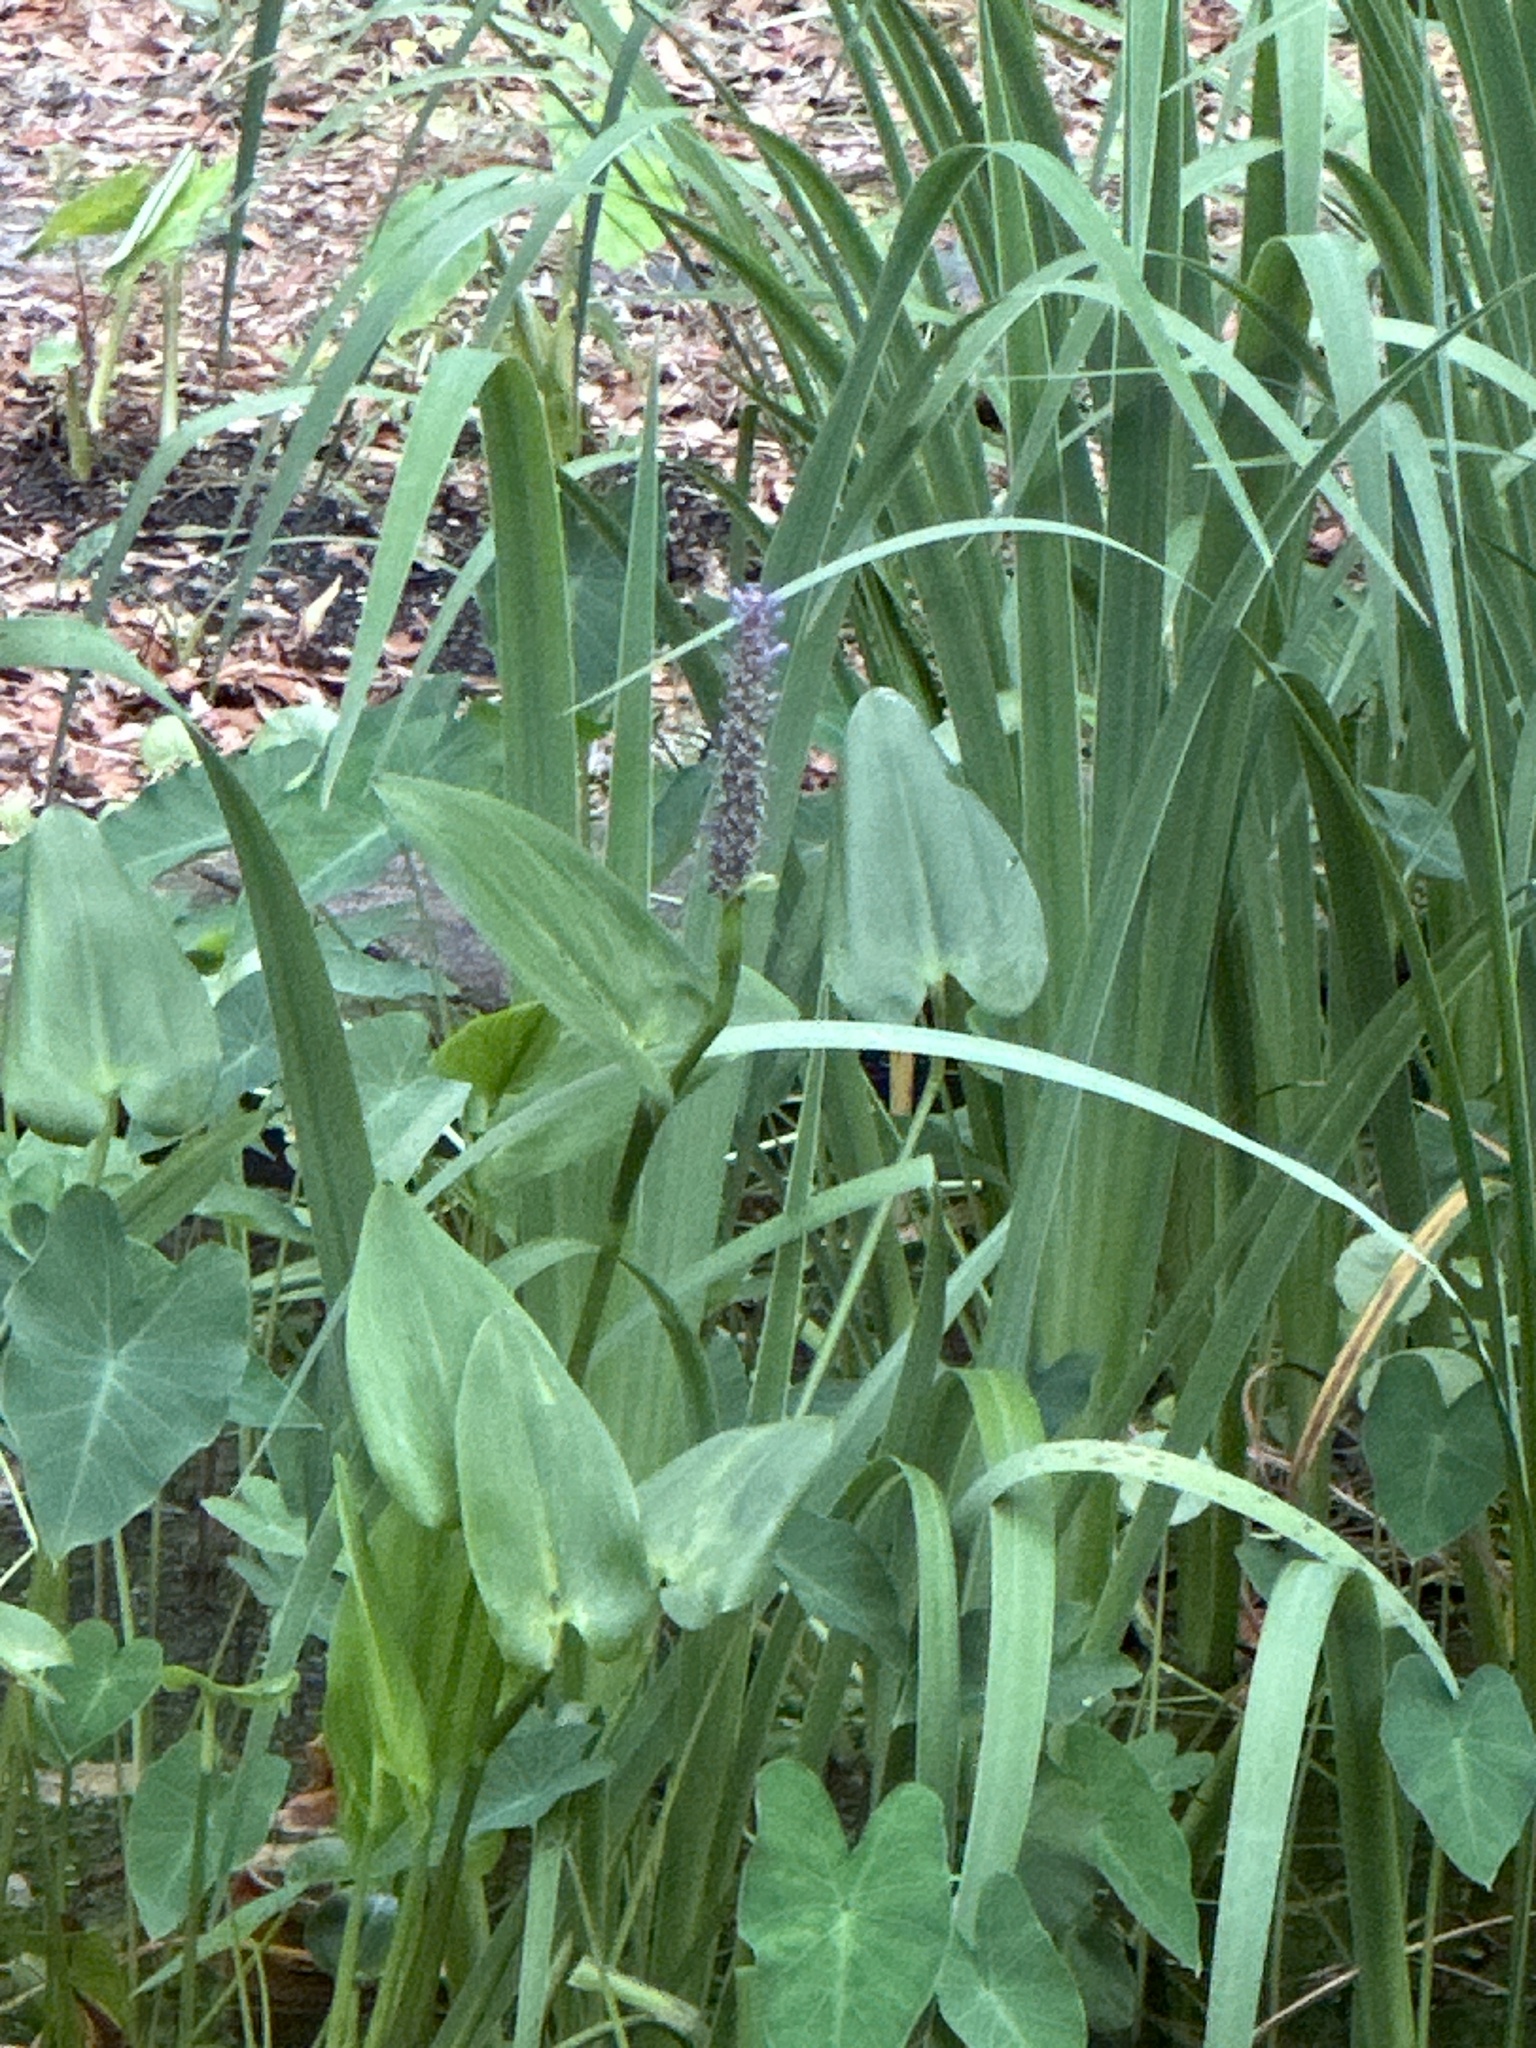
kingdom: Plantae
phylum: Tracheophyta
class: Liliopsida
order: Commelinales
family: Pontederiaceae
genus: Pontederia
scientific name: Pontederia cordata
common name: Pickerelweed
